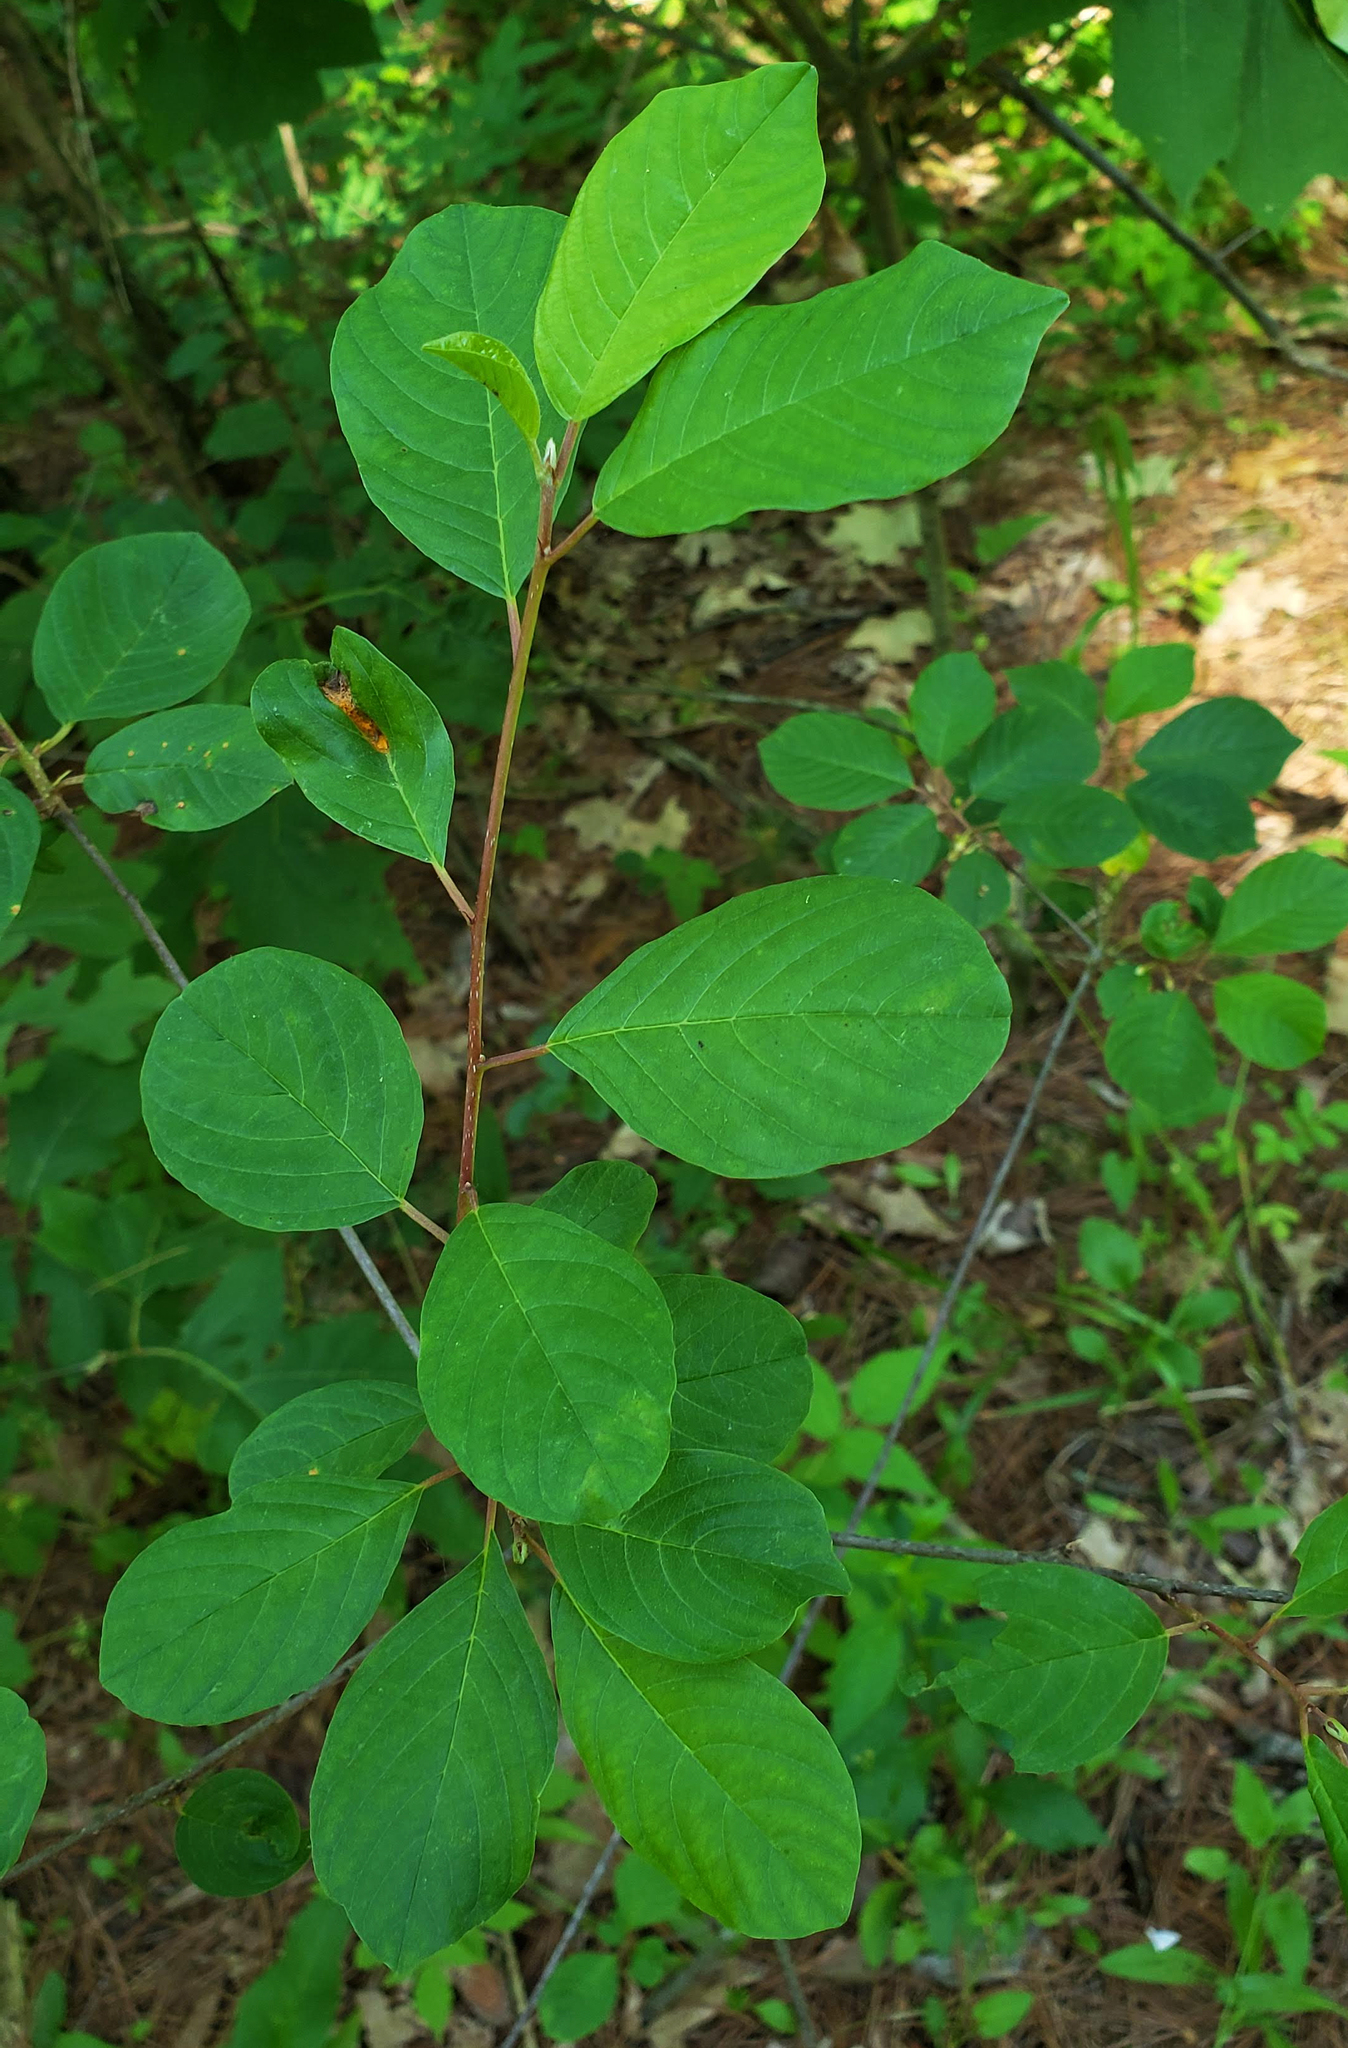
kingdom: Plantae
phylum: Tracheophyta
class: Magnoliopsida
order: Rosales
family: Rhamnaceae
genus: Frangula
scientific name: Frangula alnus
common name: Alder buckthorn
